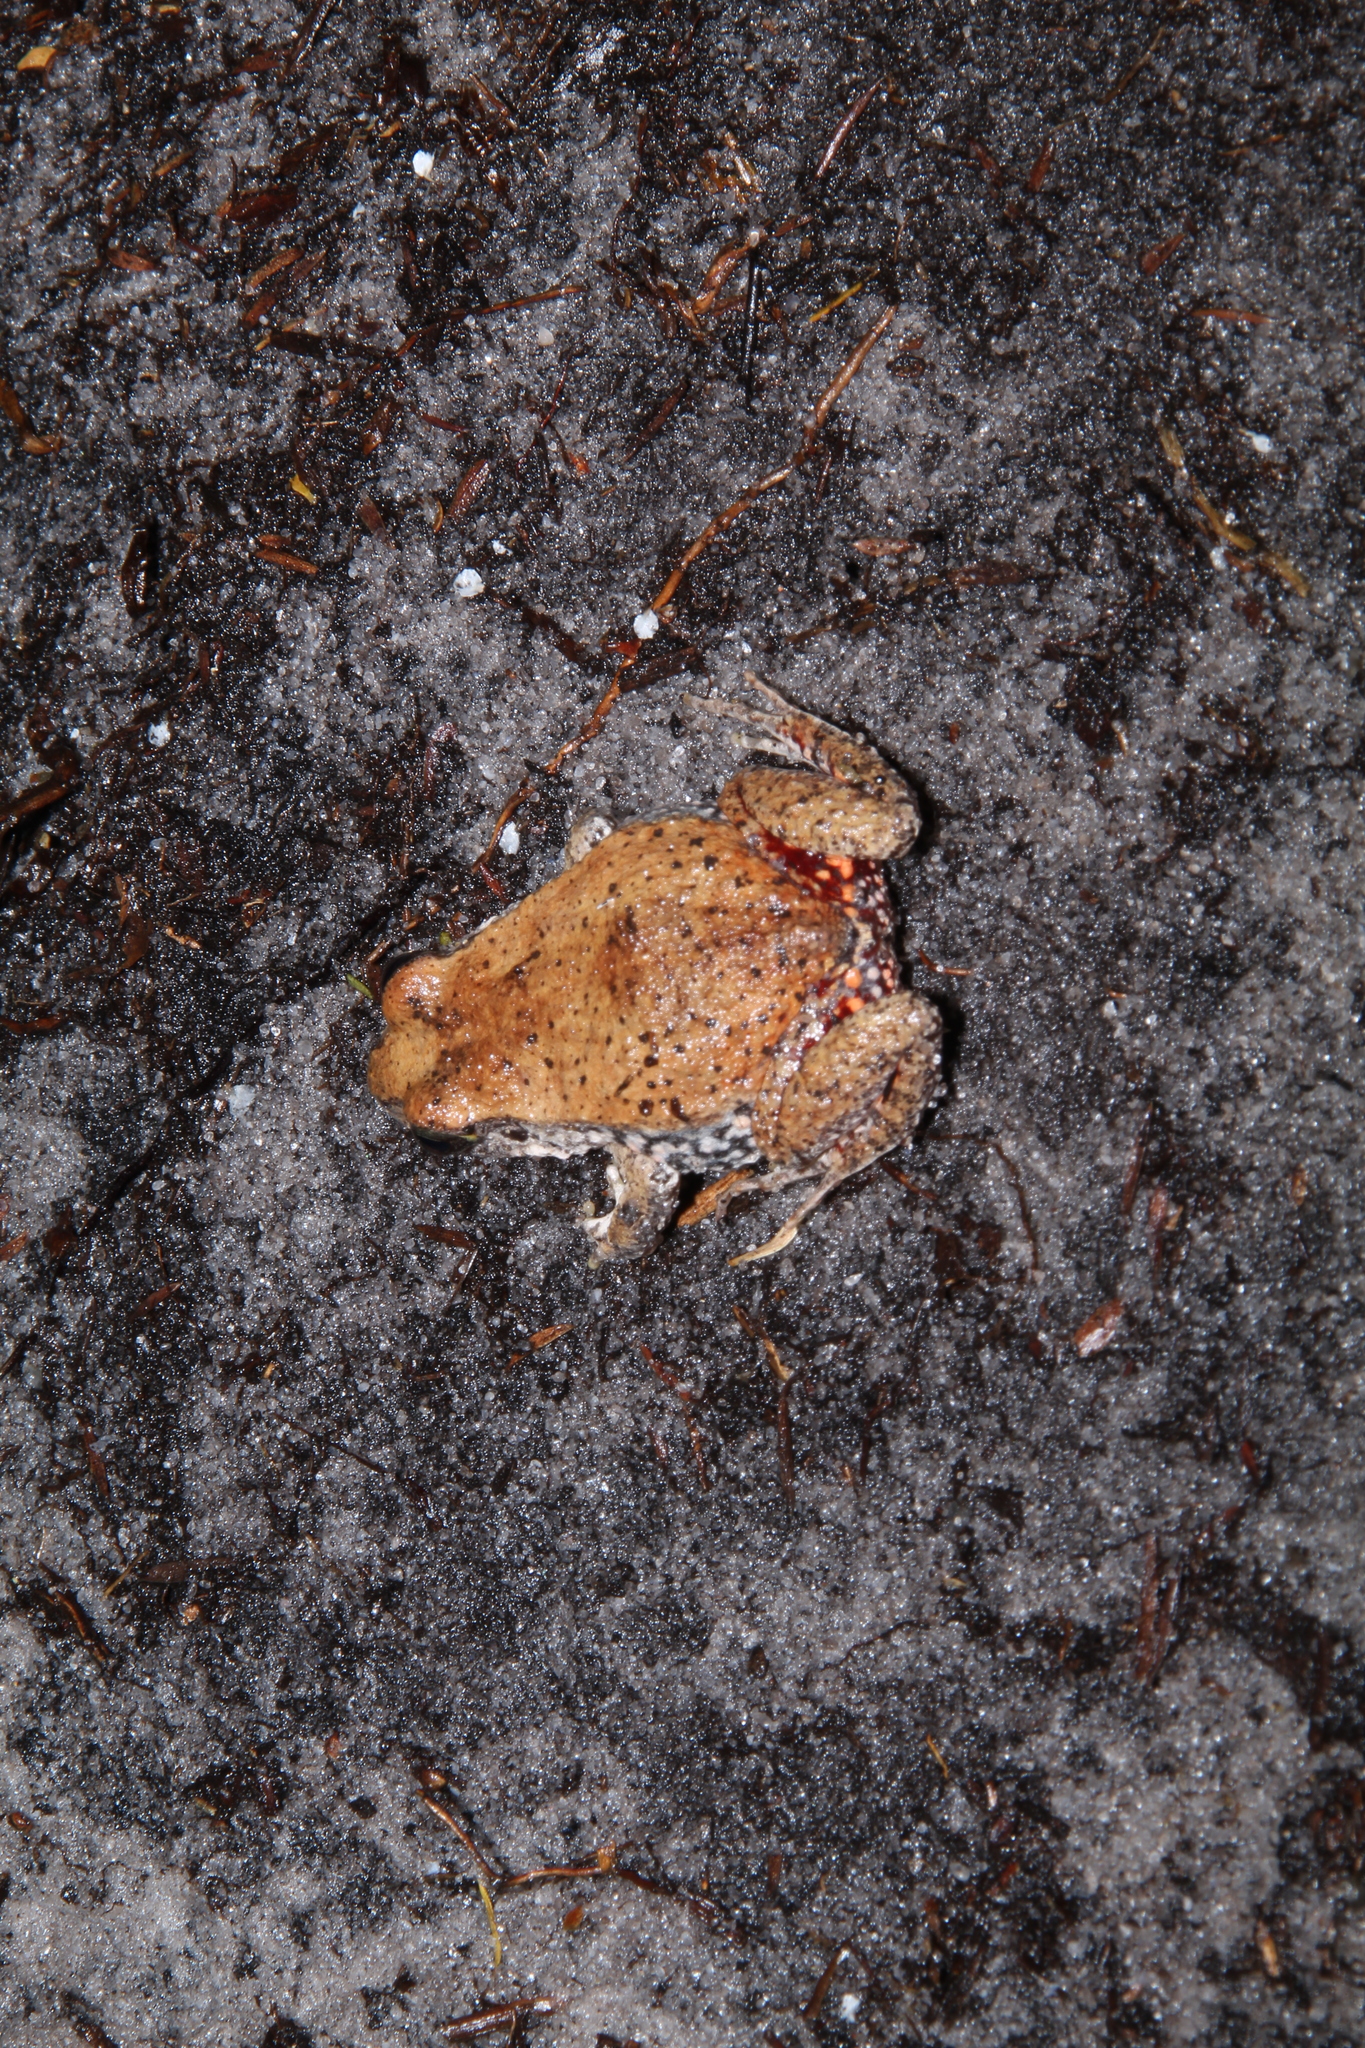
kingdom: Animalia
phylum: Chordata
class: Amphibia
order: Anura
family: Myobatrachidae
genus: Crinia
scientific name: Crinia georgiana
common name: Quacking frog
